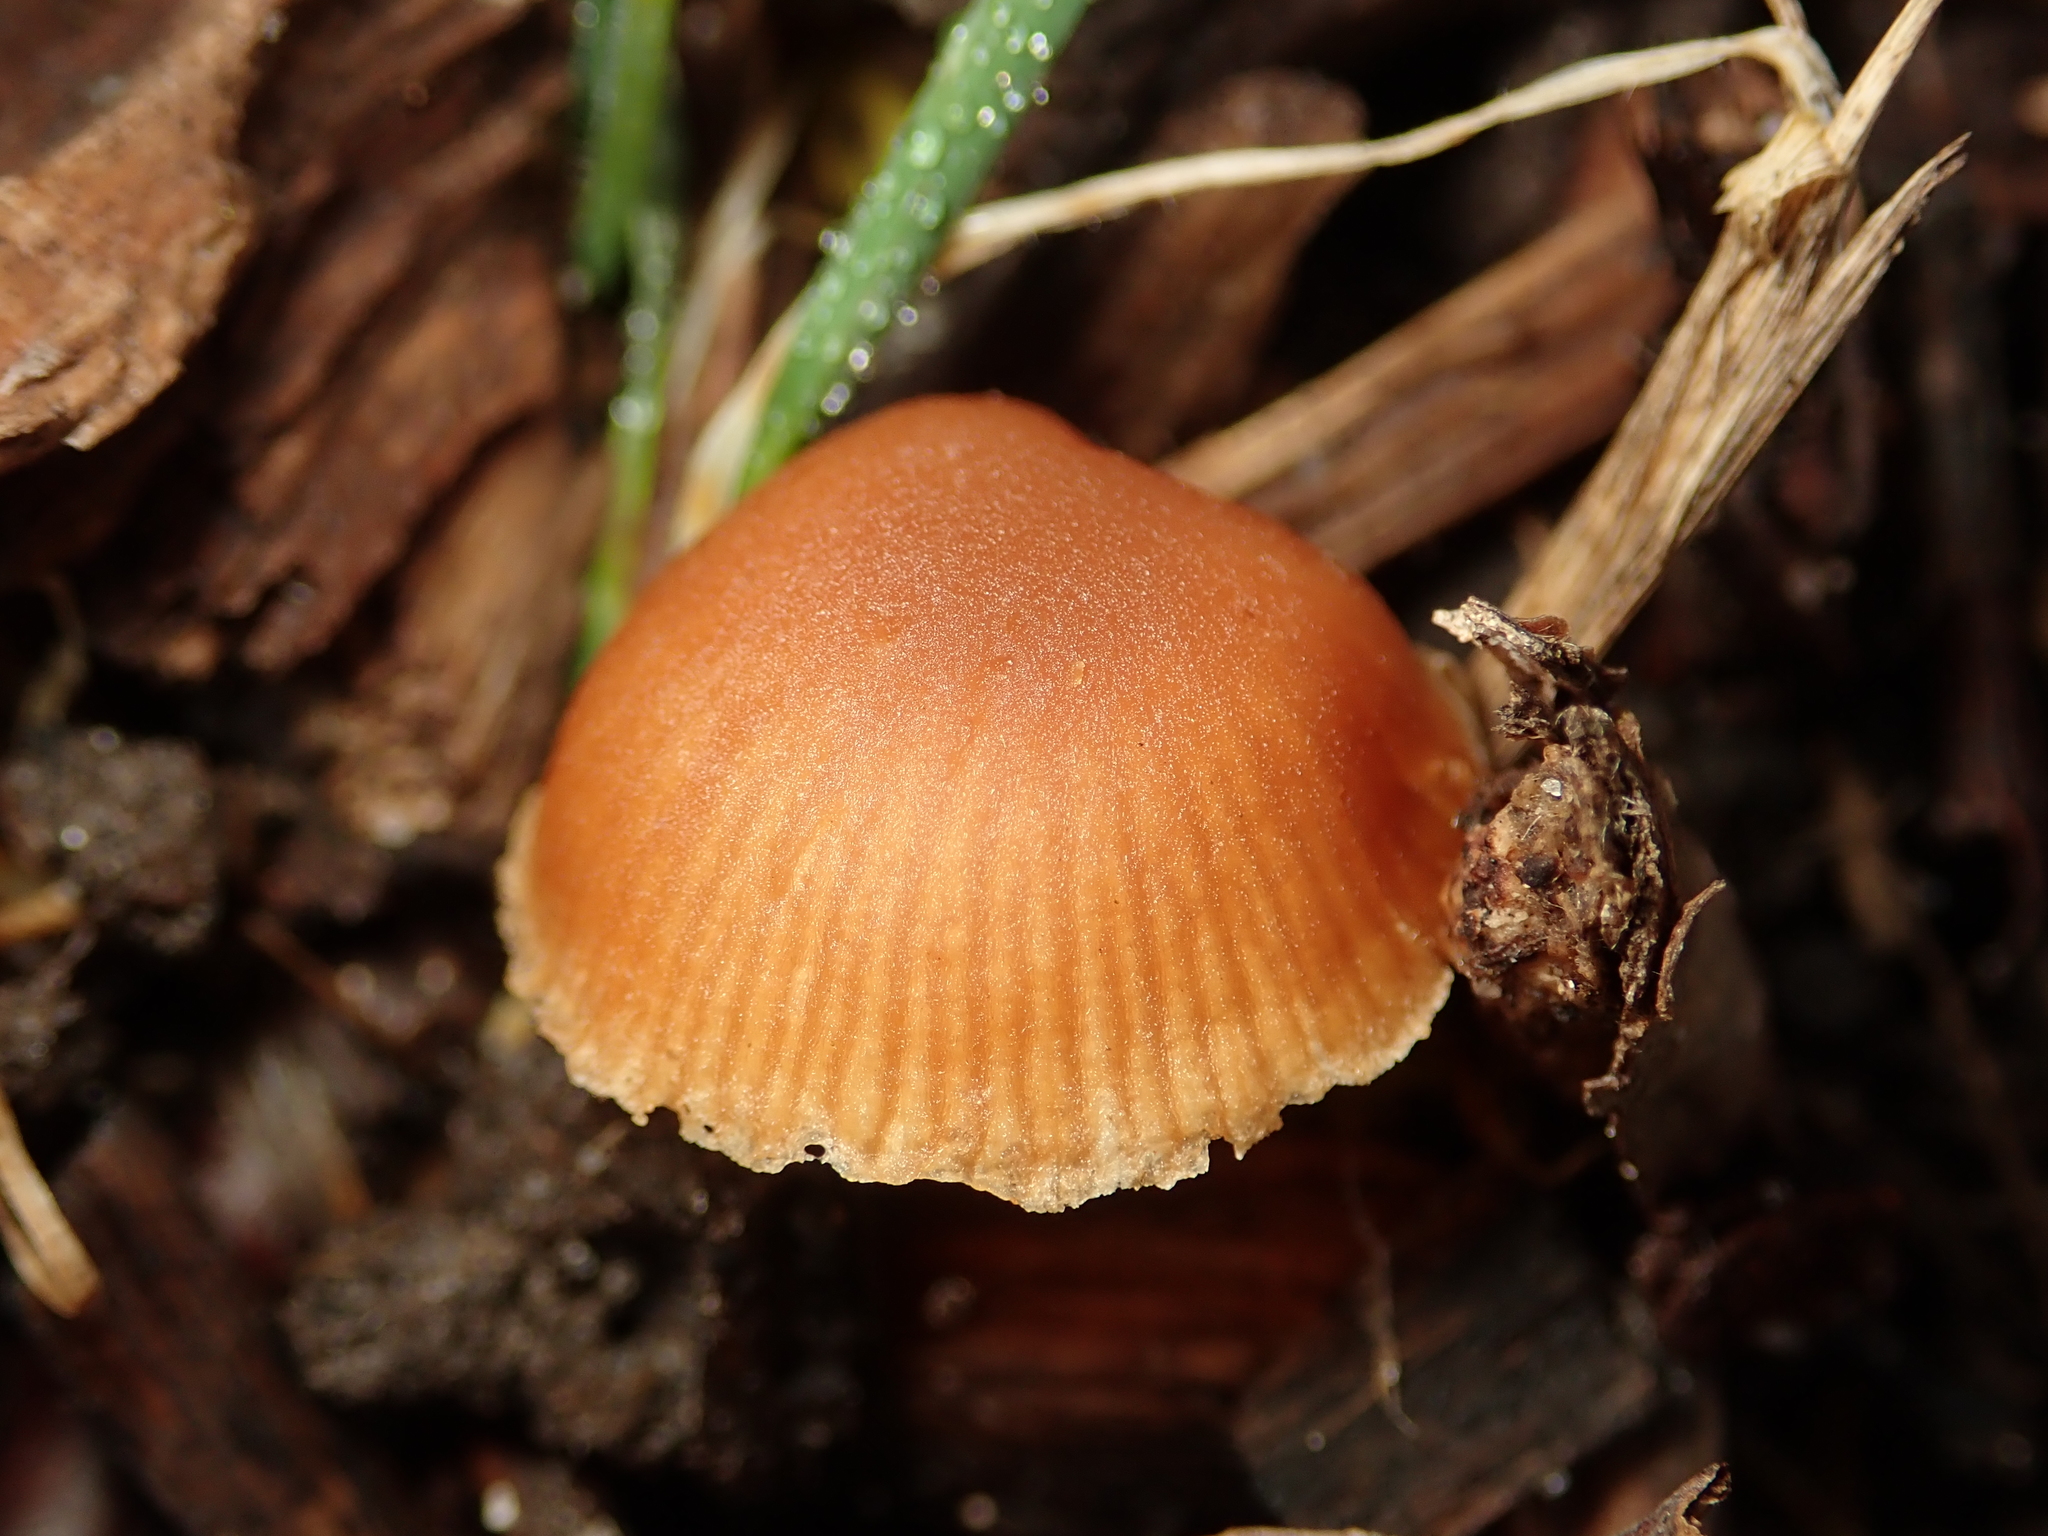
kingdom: Fungi
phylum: Basidiomycota
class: Agaricomycetes
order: Agaricales
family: Tubariaceae
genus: Tubaria
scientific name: Tubaria furfuracea
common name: Scurfy twiglet
